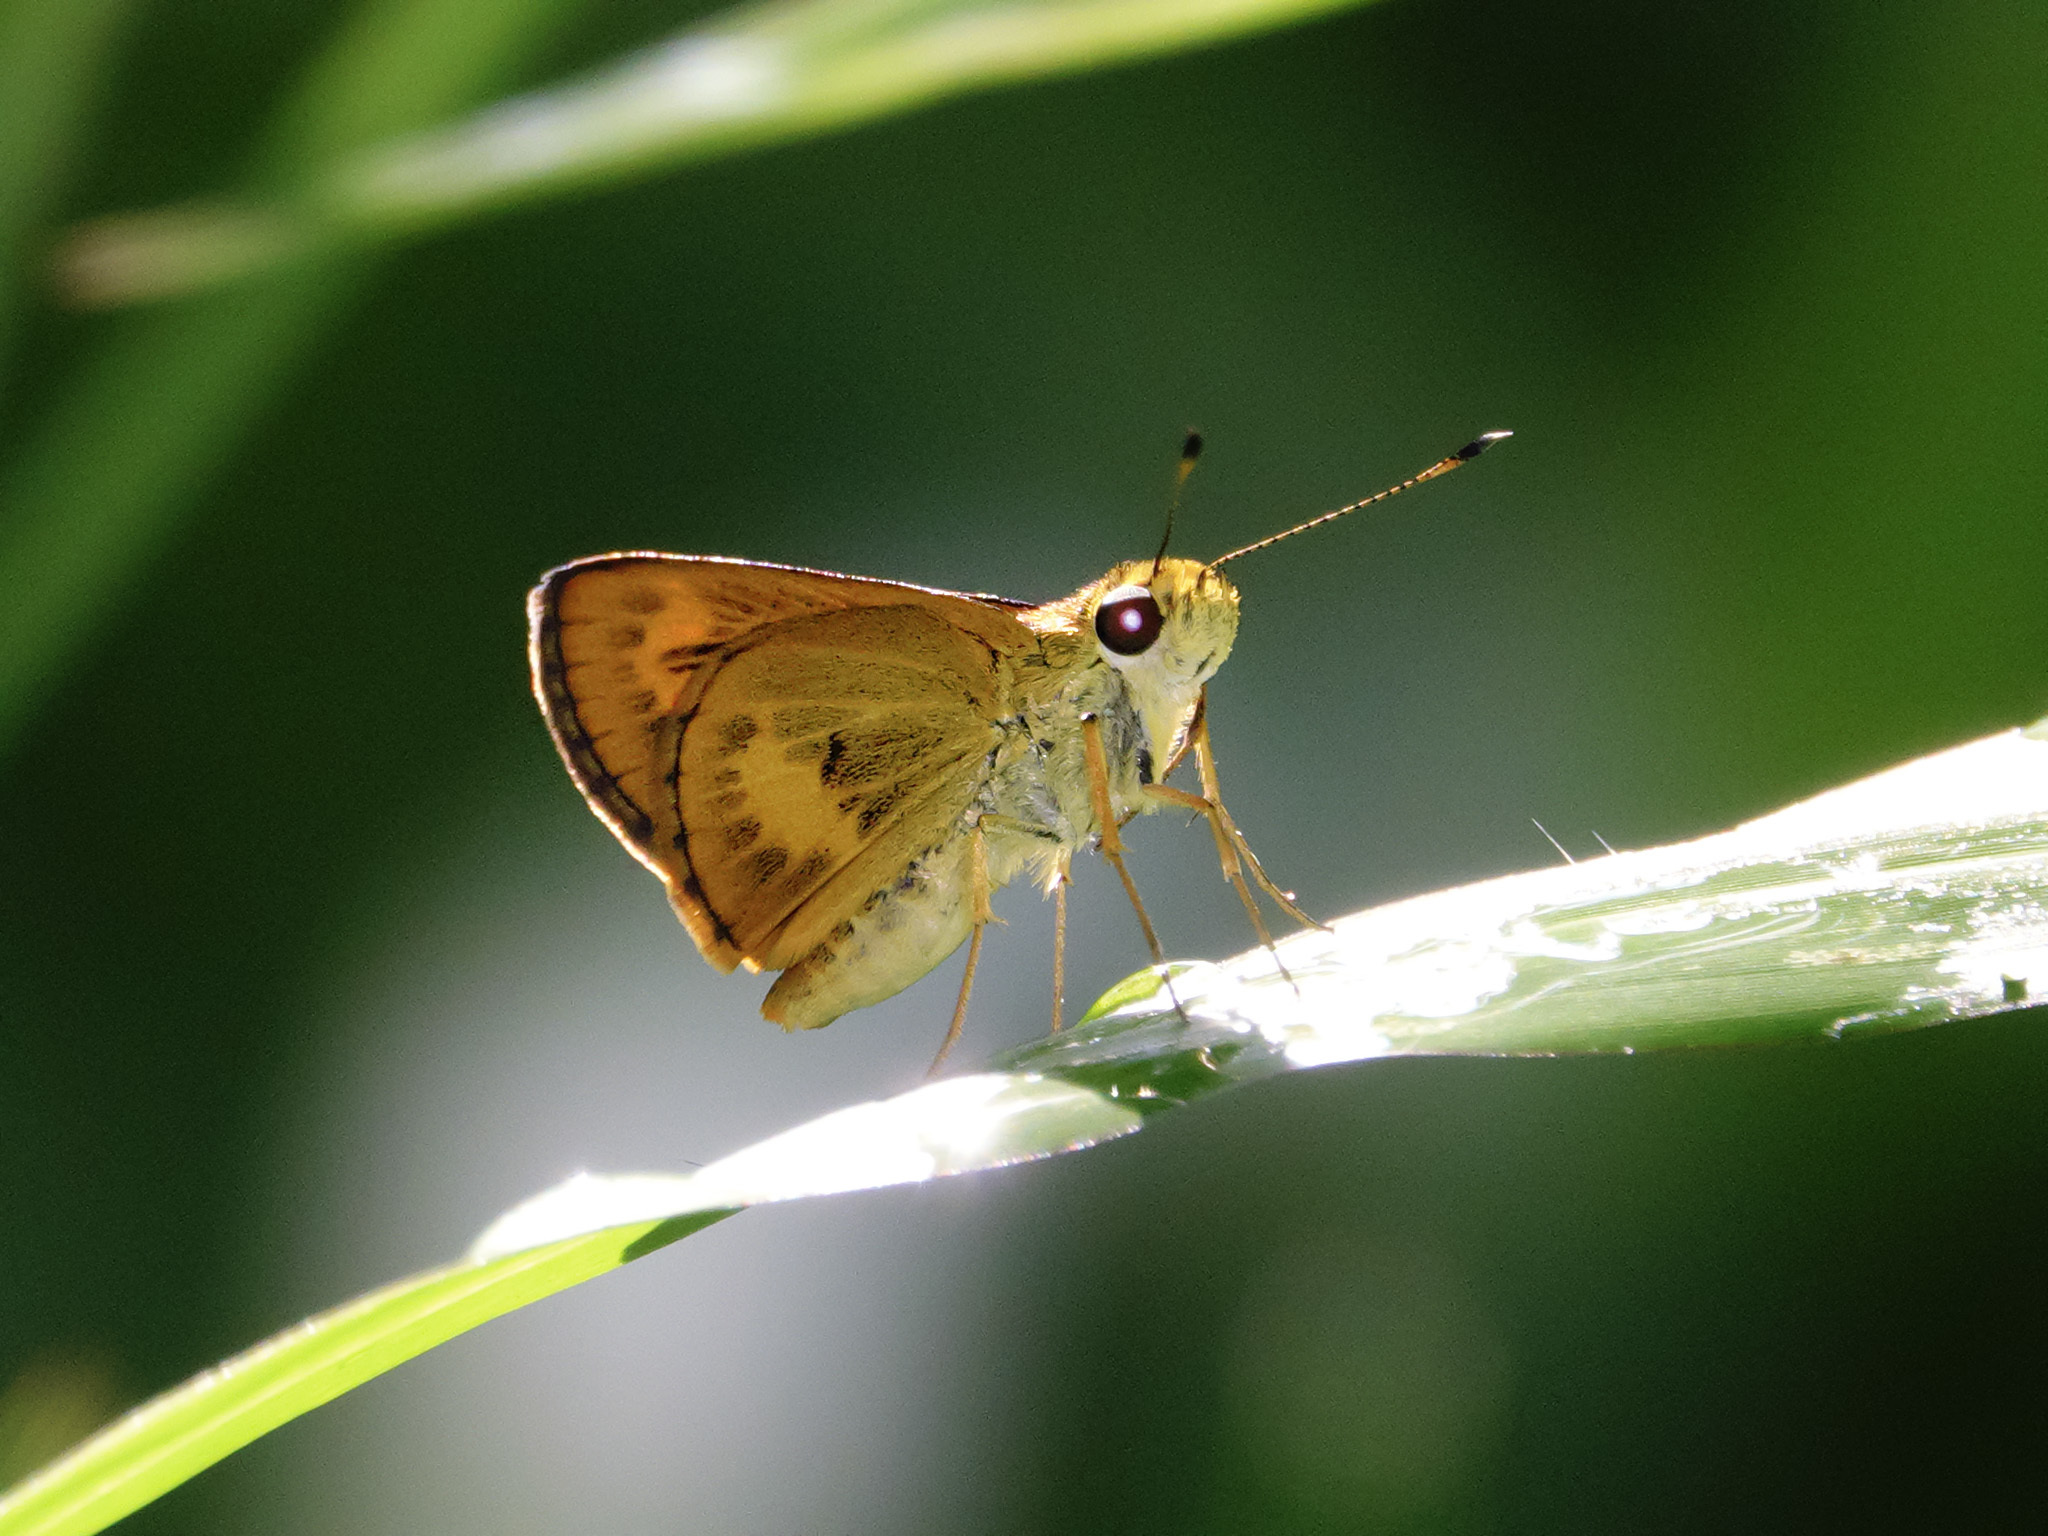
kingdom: Animalia
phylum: Arthropoda
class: Insecta
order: Lepidoptera
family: Hesperiidae
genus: Oriens
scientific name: Oriens gola
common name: Common dartlet
